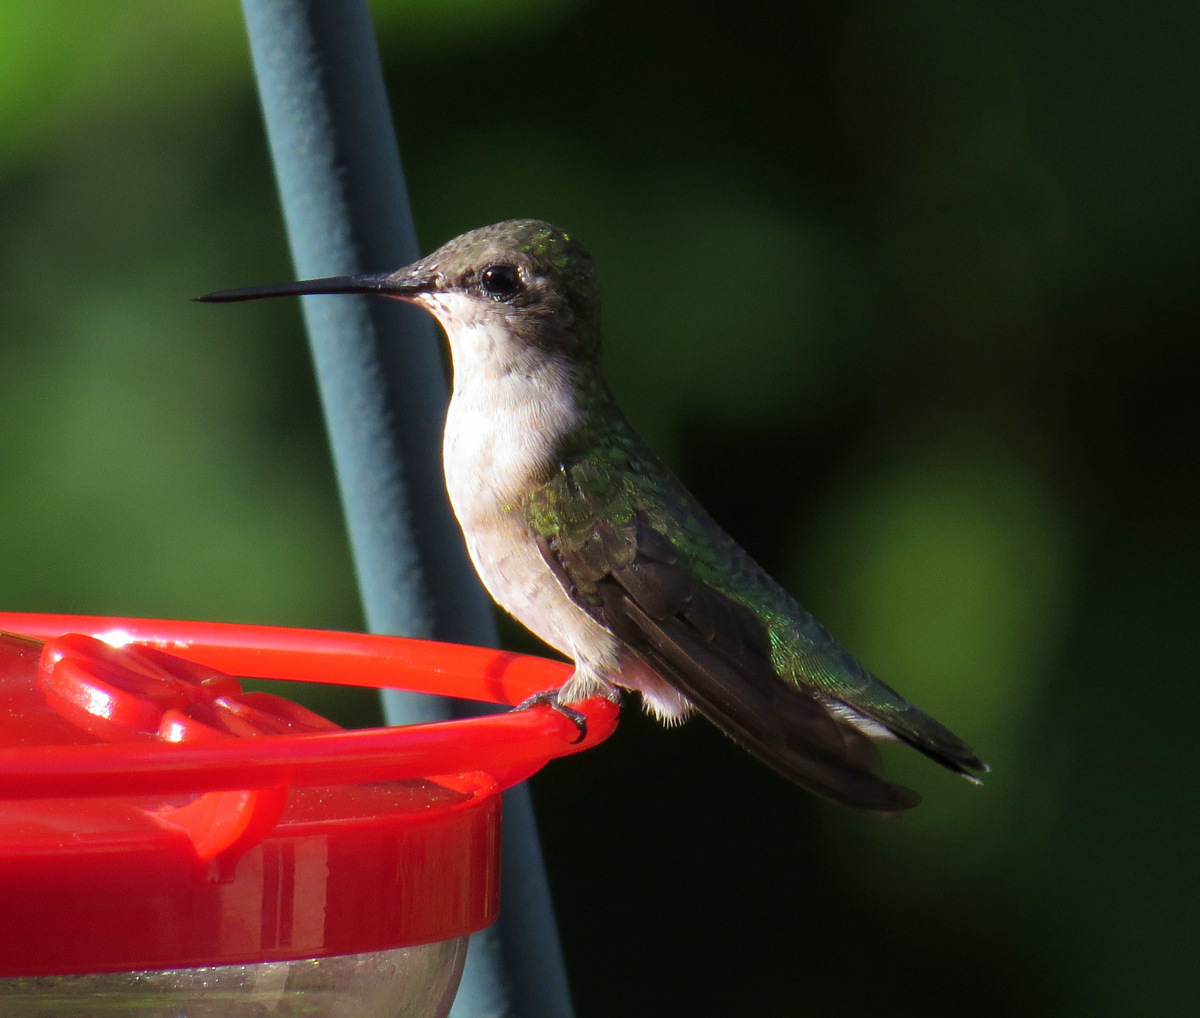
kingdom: Animalia
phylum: Chordata
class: Aves
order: Apodiformes
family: Trochilidae
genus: Archilochus
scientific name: Archilochus colubris
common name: Ruby-throated hummingbird
